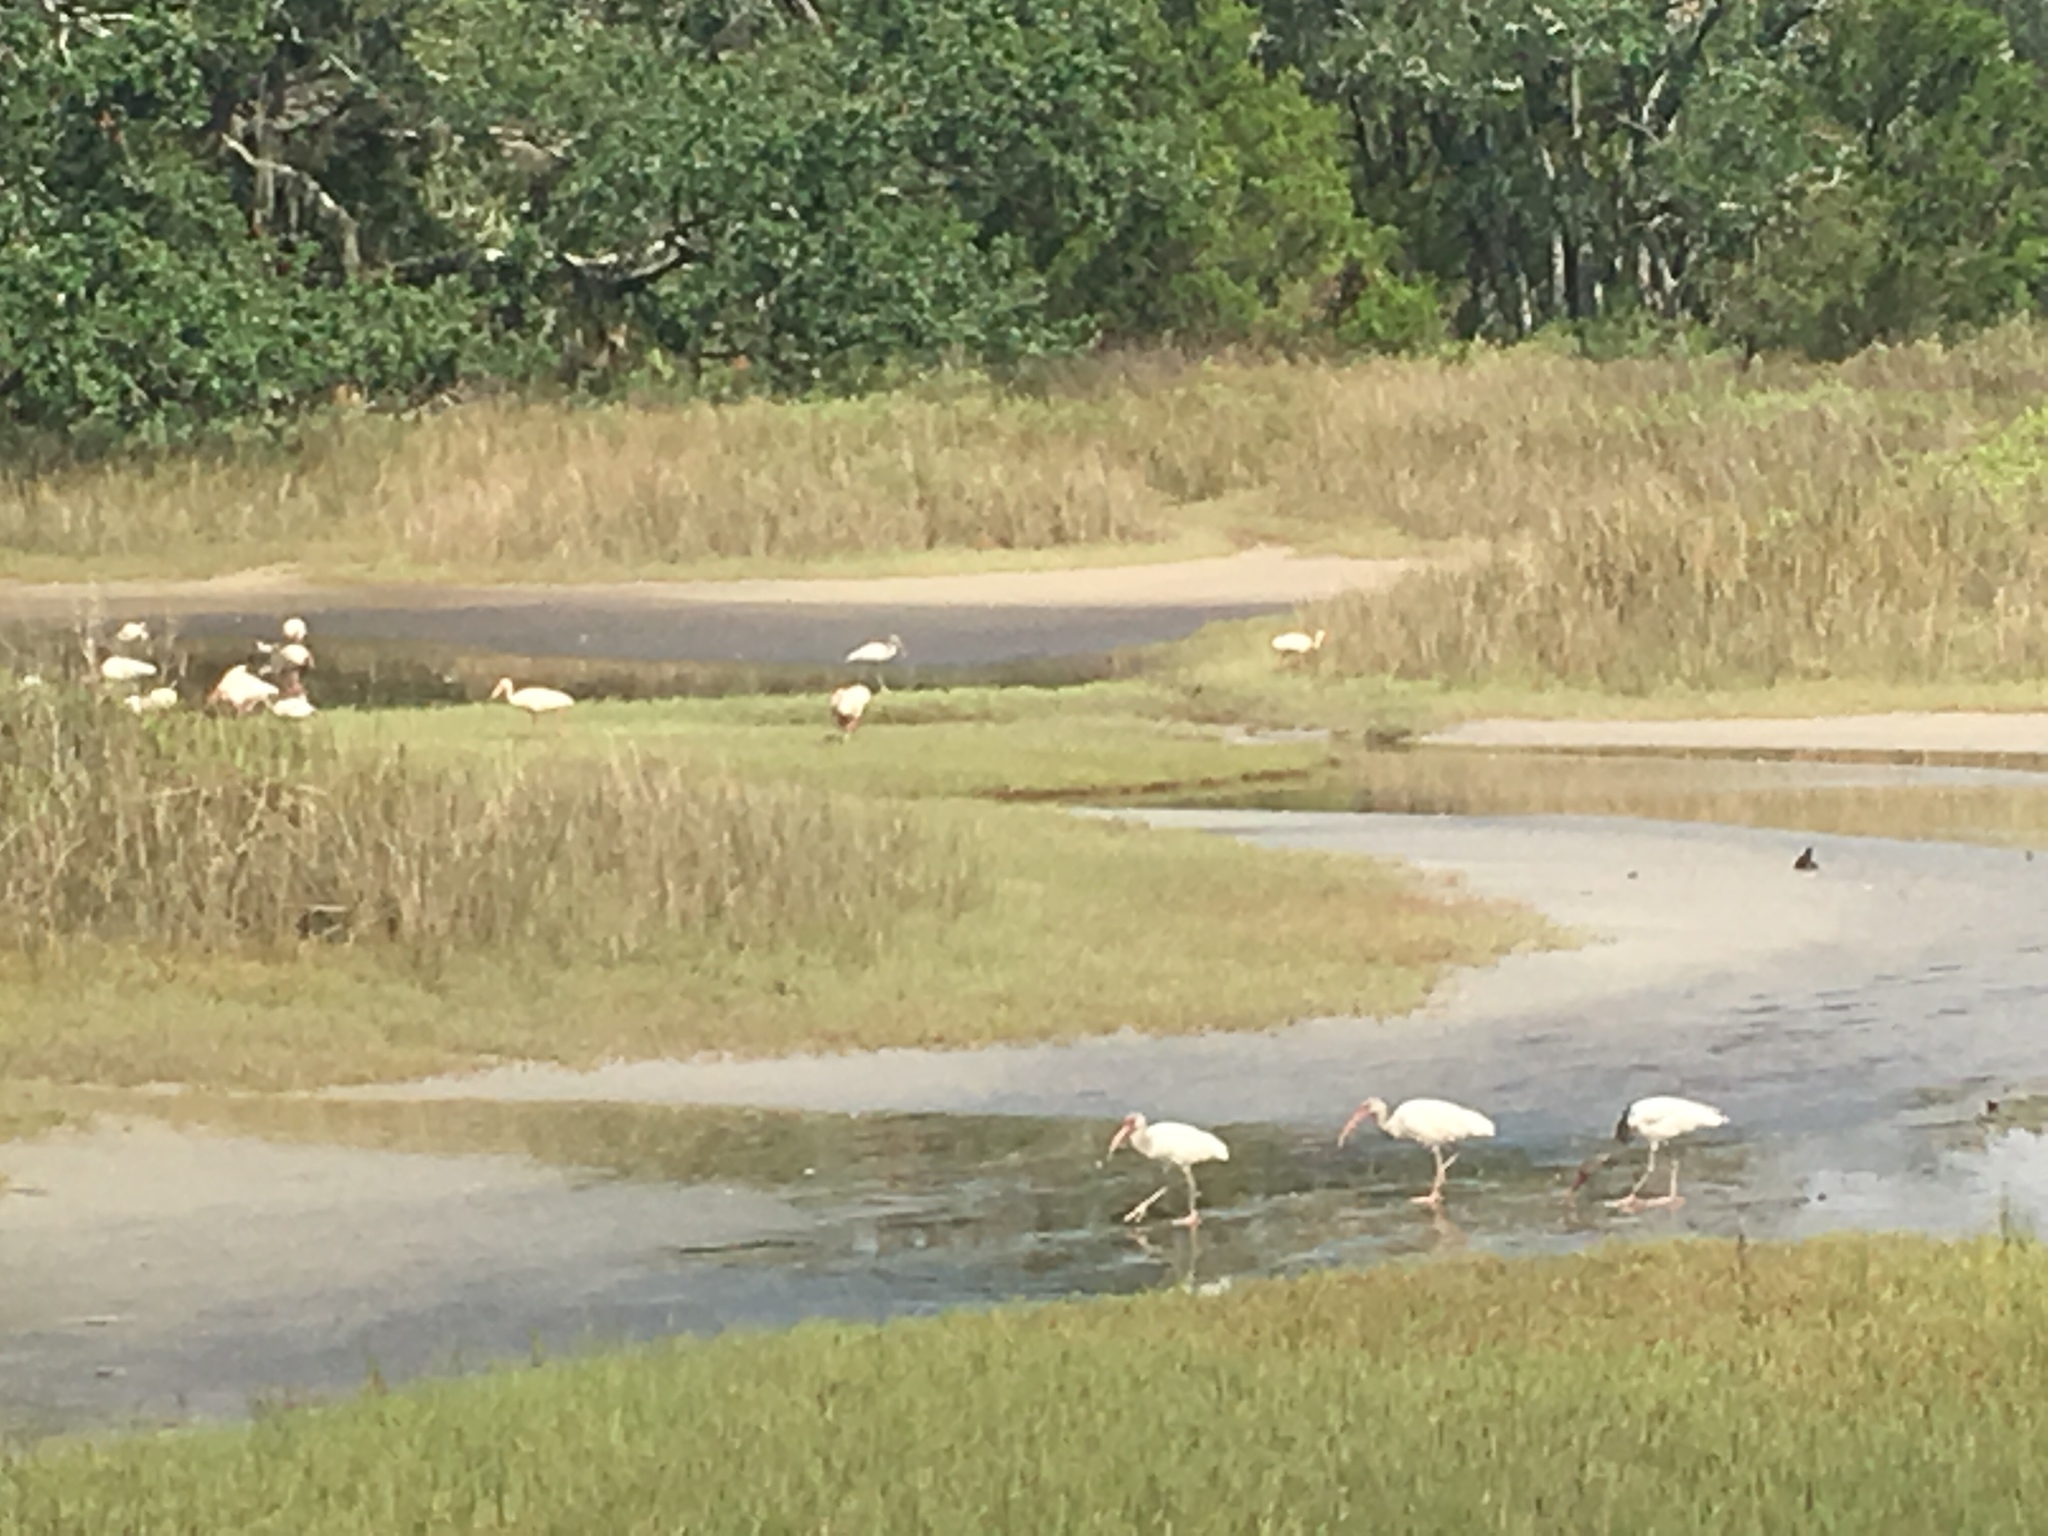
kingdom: Animalia
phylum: Chordata
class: Aves
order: Pelecaniformes
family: Threskiornithidae
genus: Eudocimus
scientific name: Eudocimus albus
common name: White ibis
